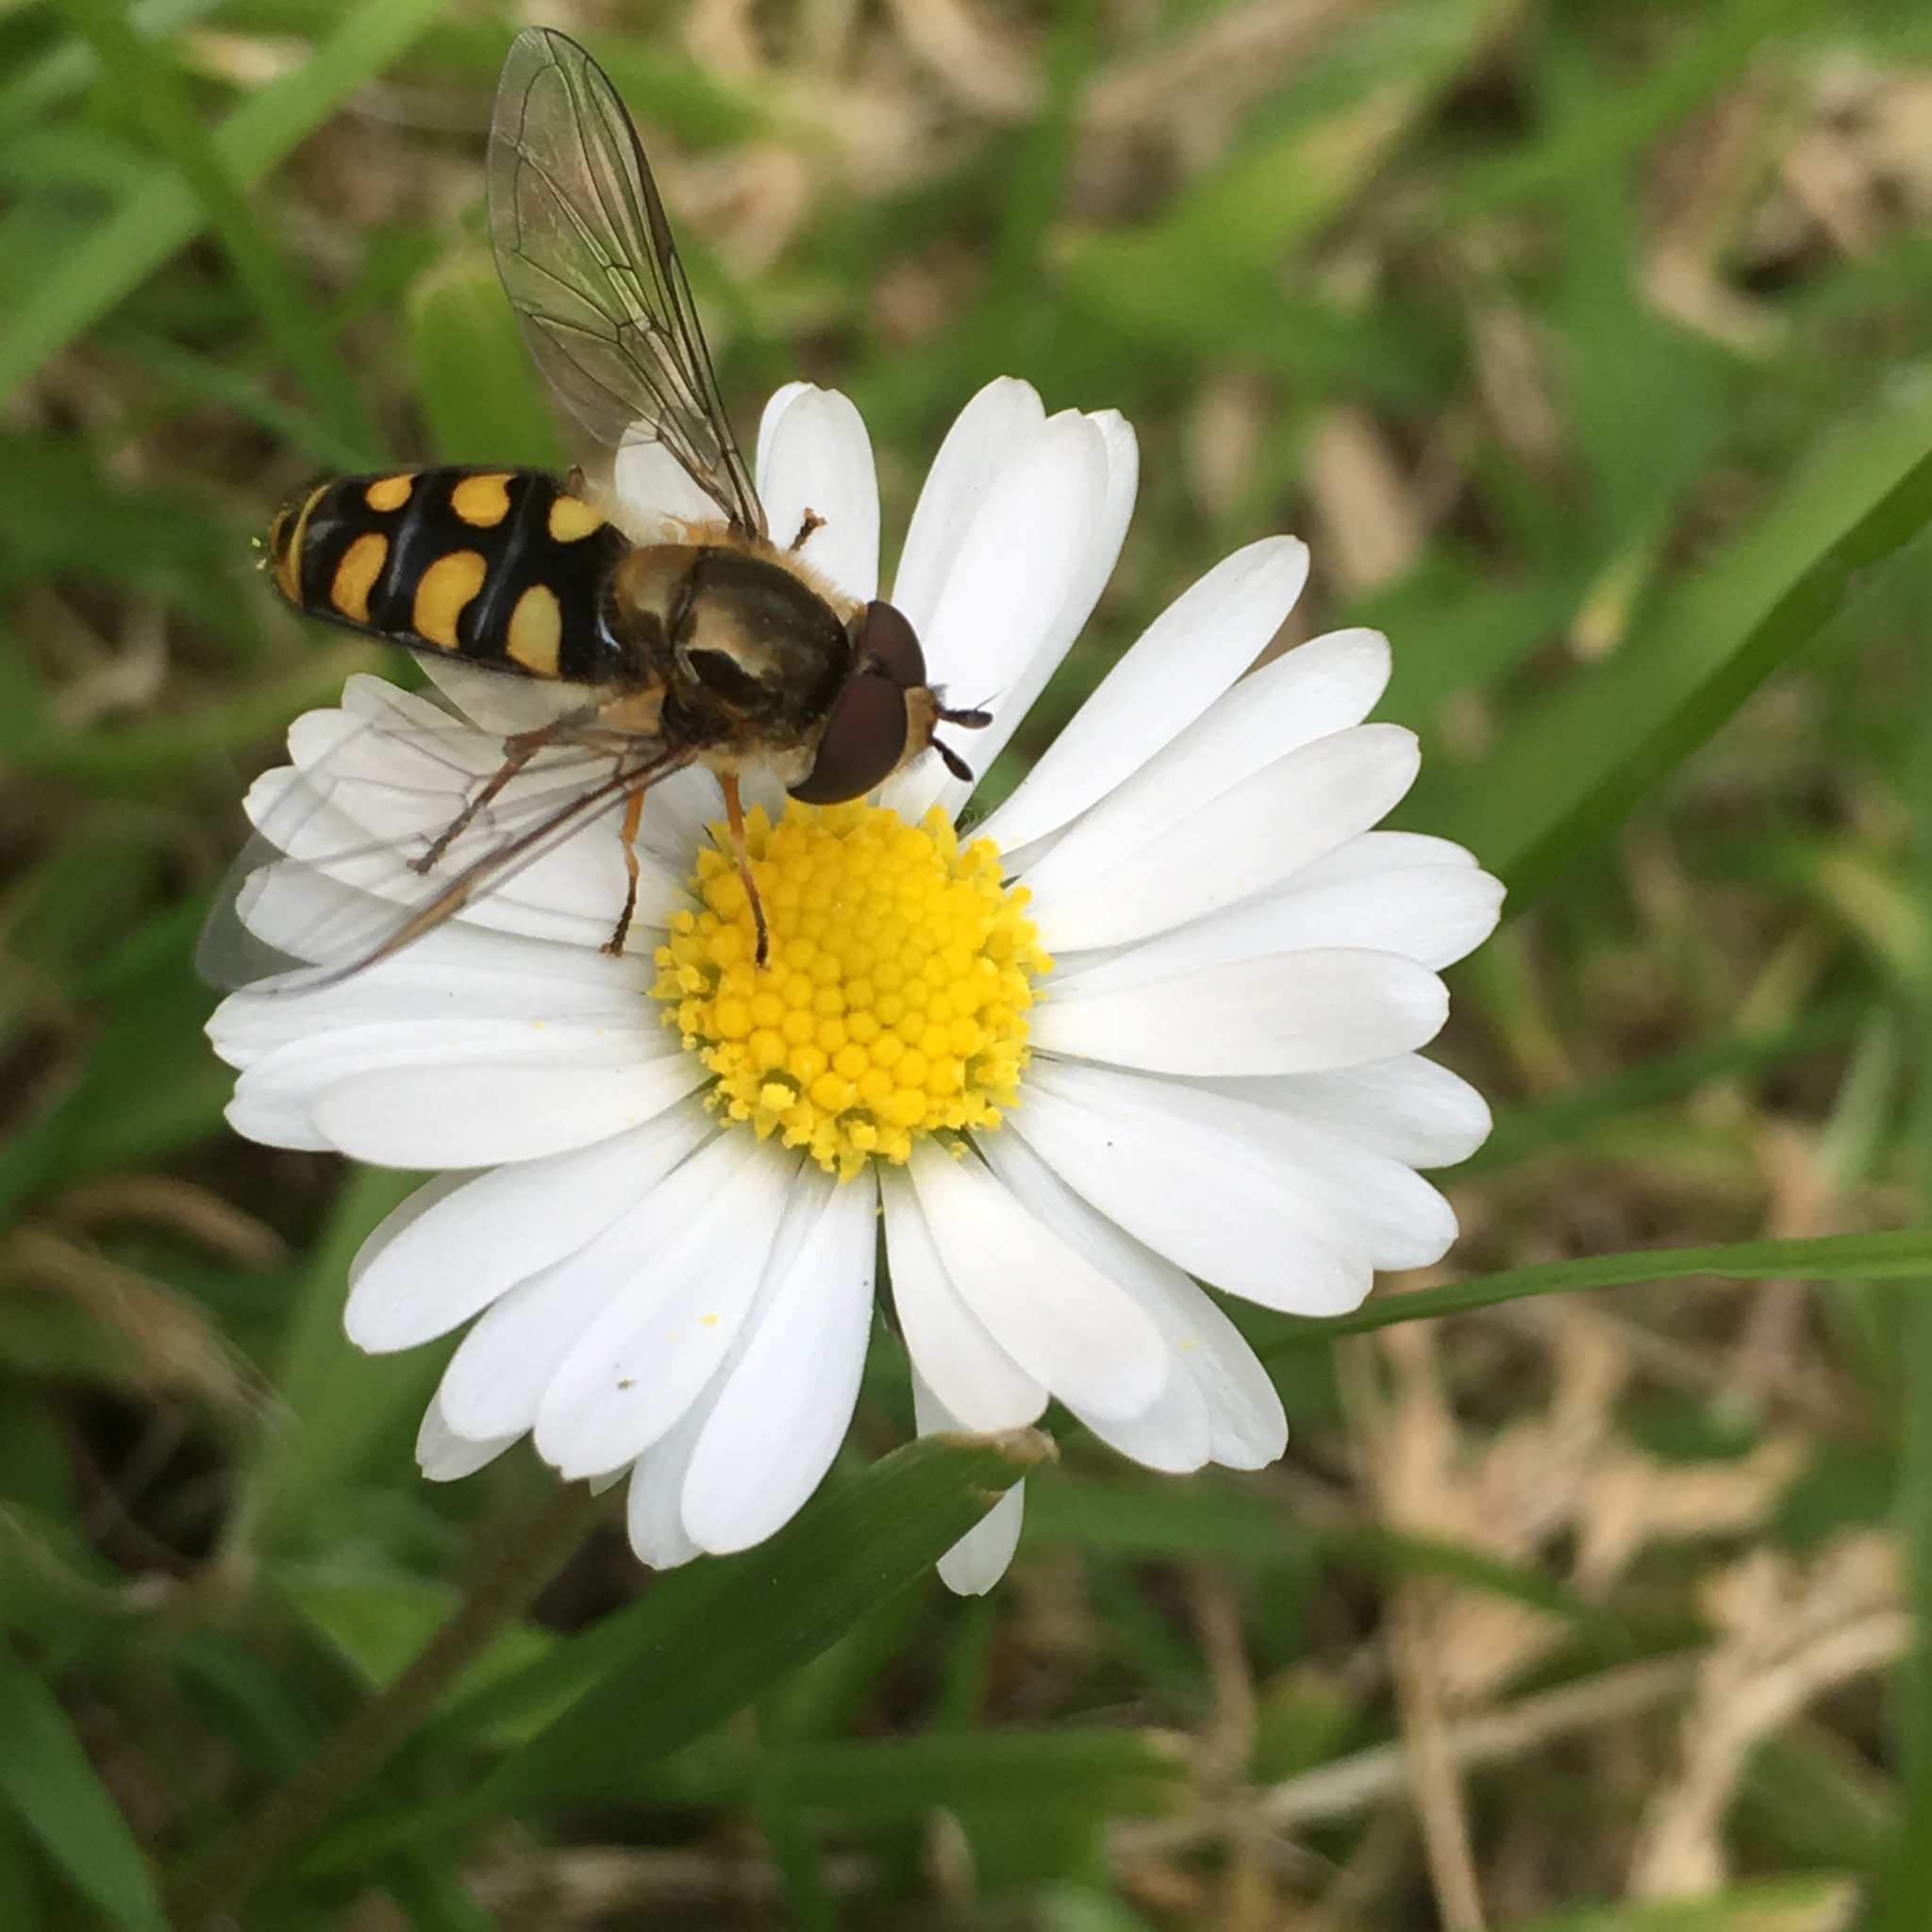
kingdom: Animalia
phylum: Arthropoda
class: Insecta
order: Diptera
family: Syrphidae
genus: Eupeodes
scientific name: Eupeodes
